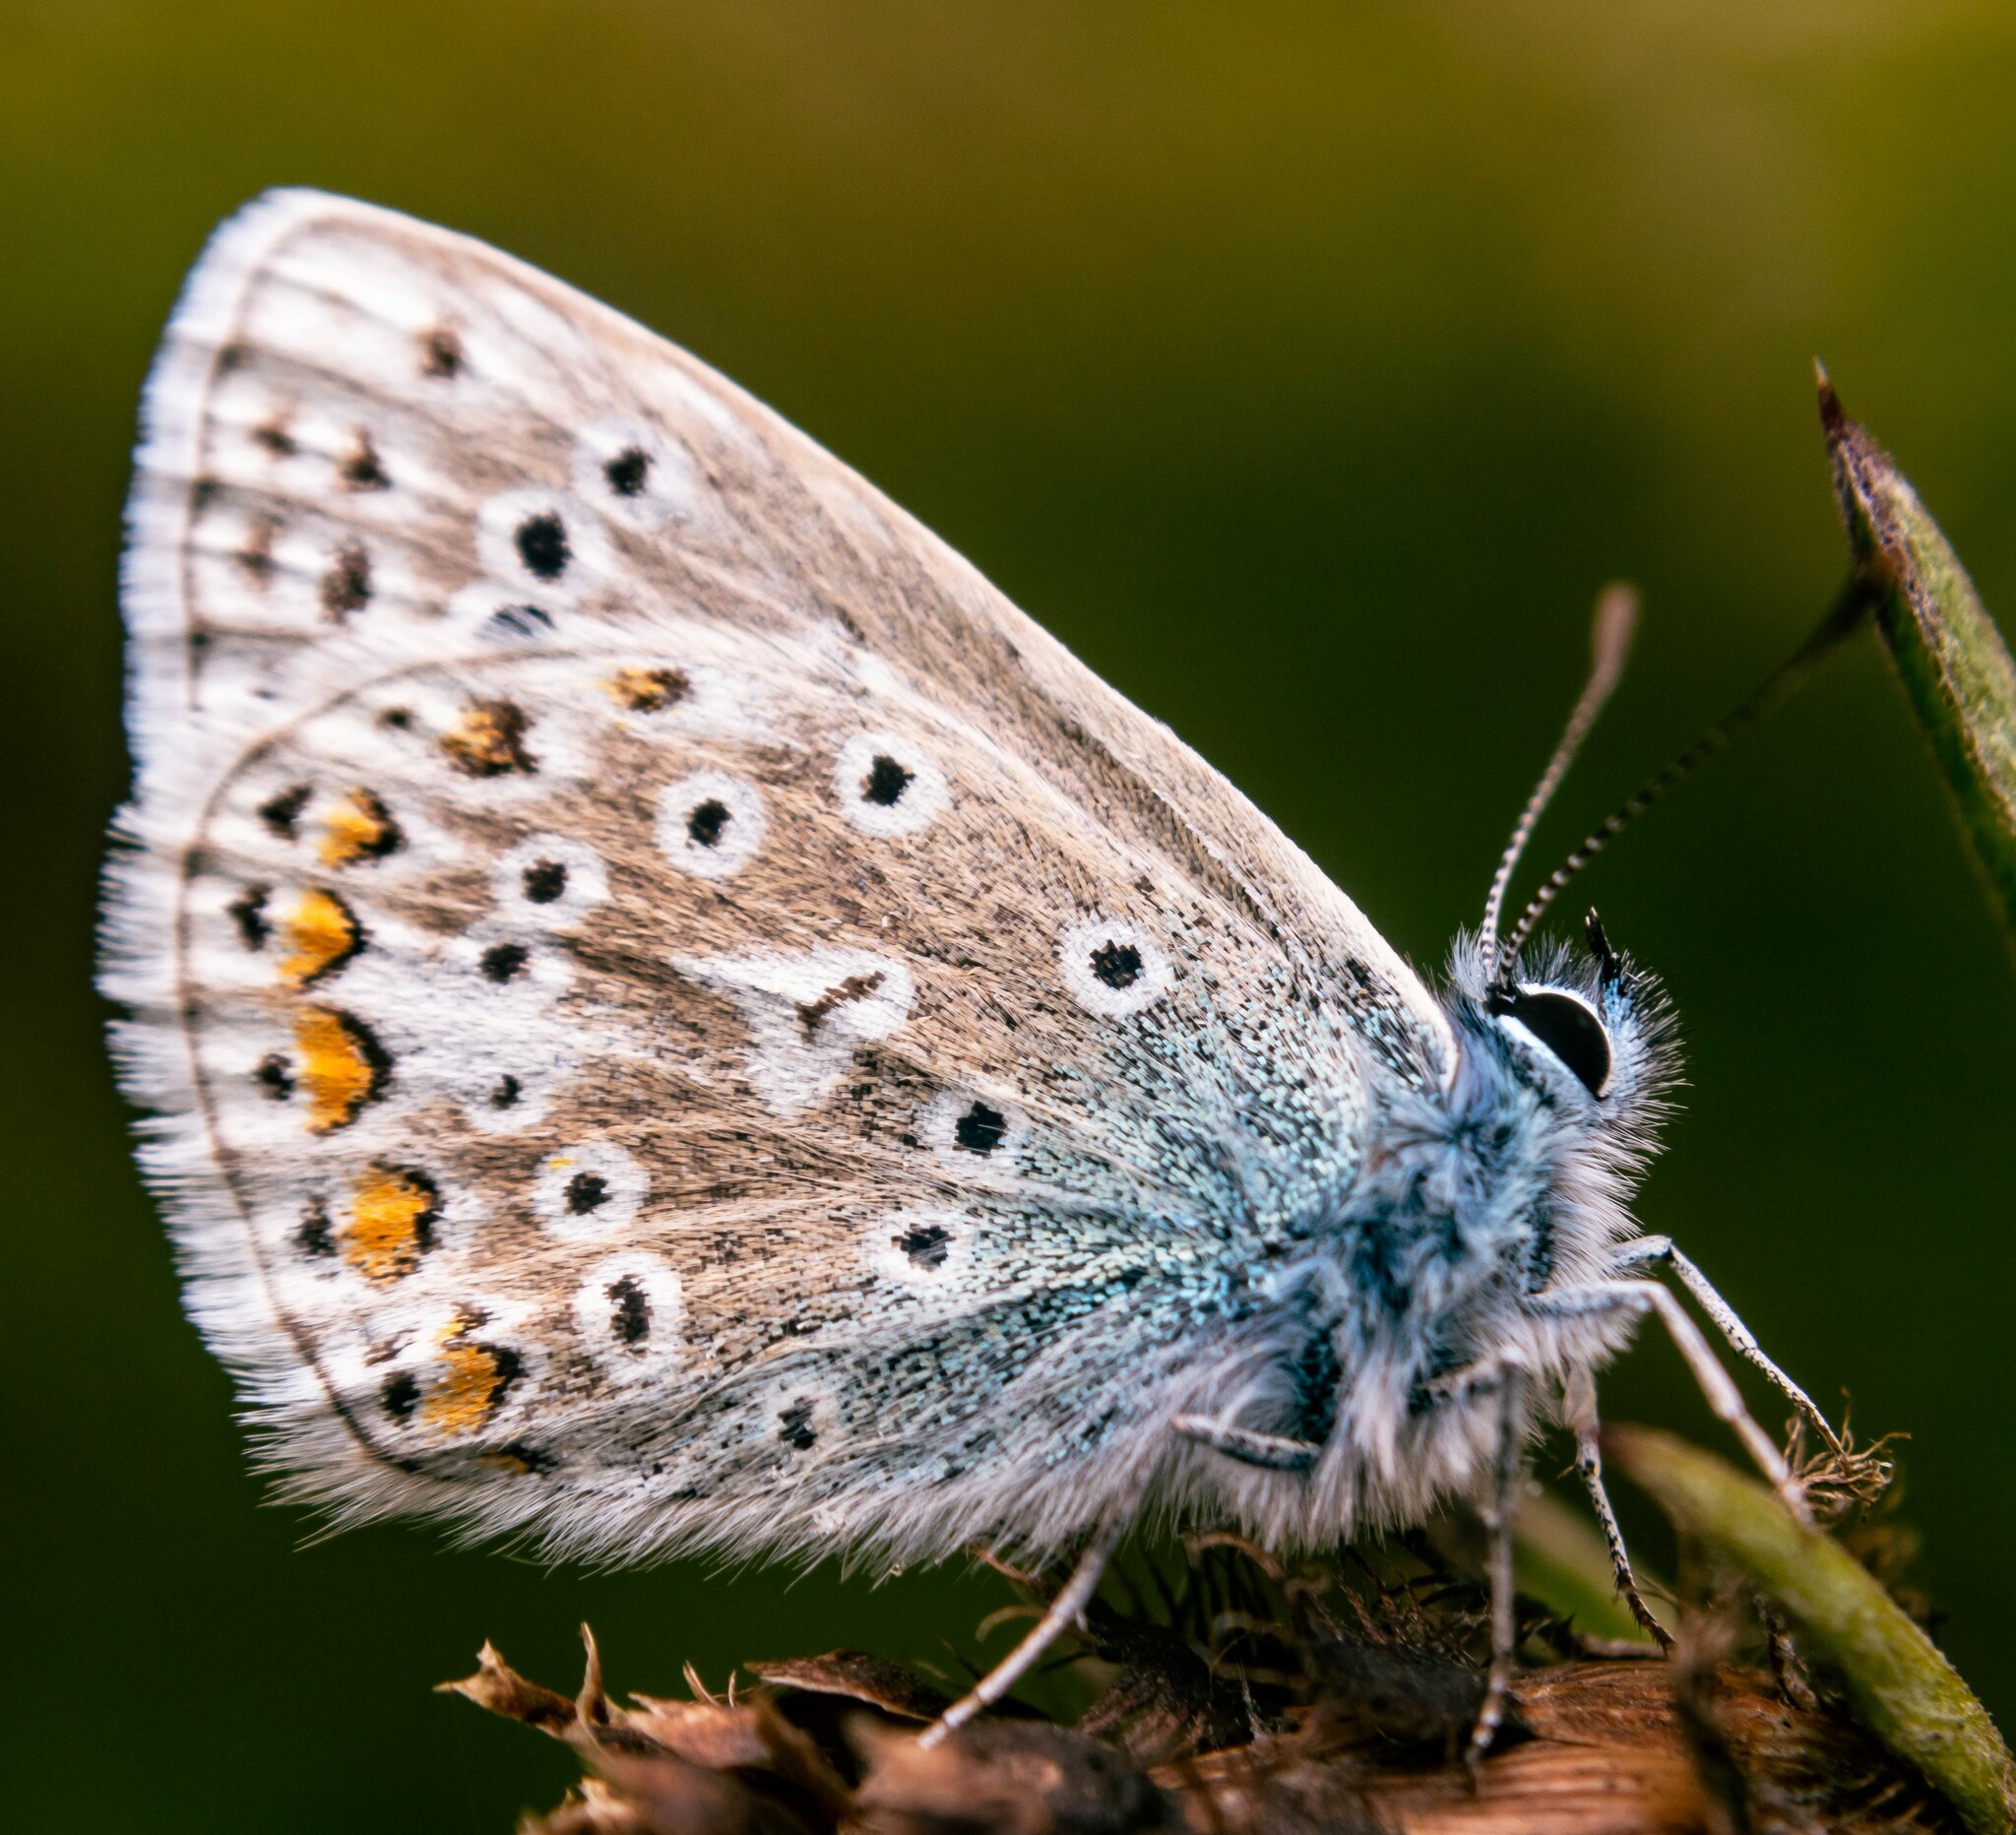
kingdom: Animalia
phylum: Arthropoda
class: Insecta
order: Lepidoptera
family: Lycaenidae
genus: Polyommatus
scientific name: Polyommatus icarus
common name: Common blue
